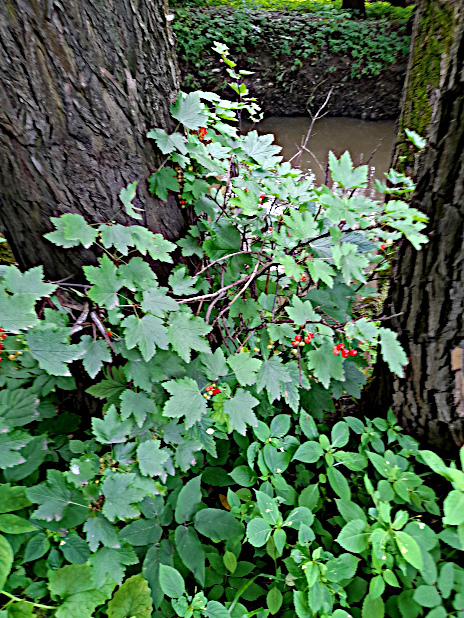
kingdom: Plantae
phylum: Tracheophyta
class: Magnoliopsida
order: Saxifragales
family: Grossulariaceae
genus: Ribes
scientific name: Ribes rubrum
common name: Red currant
